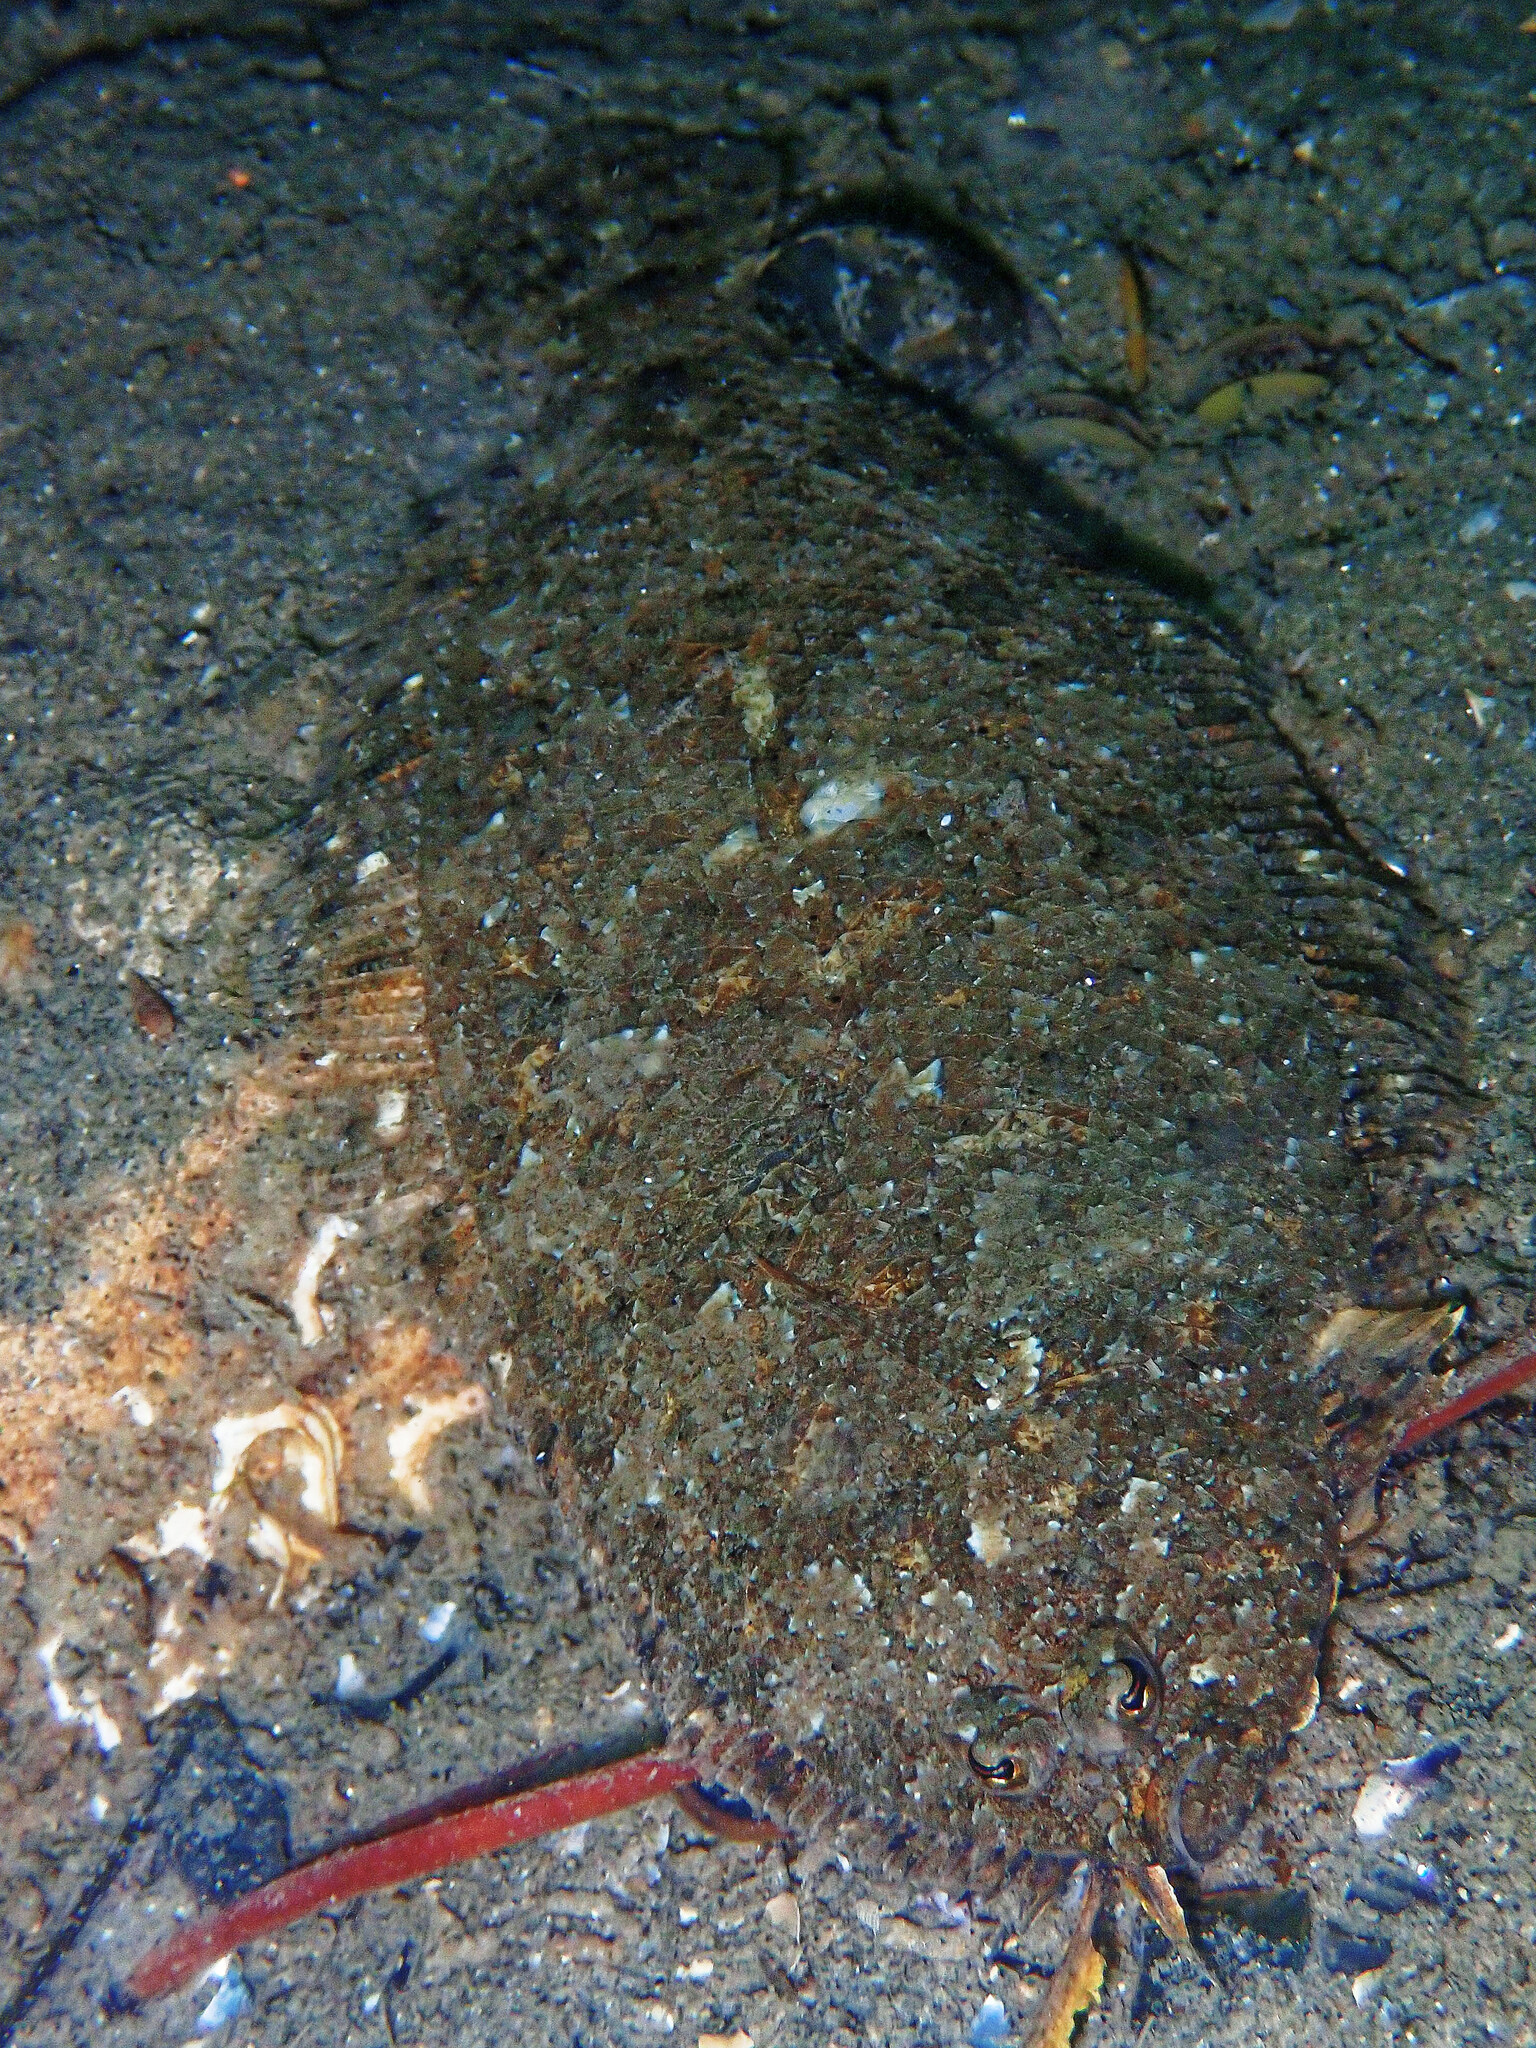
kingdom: Animalia
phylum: Chordata
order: Pleuronectiformes
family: Bothidae
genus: Arnoglossus
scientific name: Arnoglossus thori
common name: Thor's scaldfish
